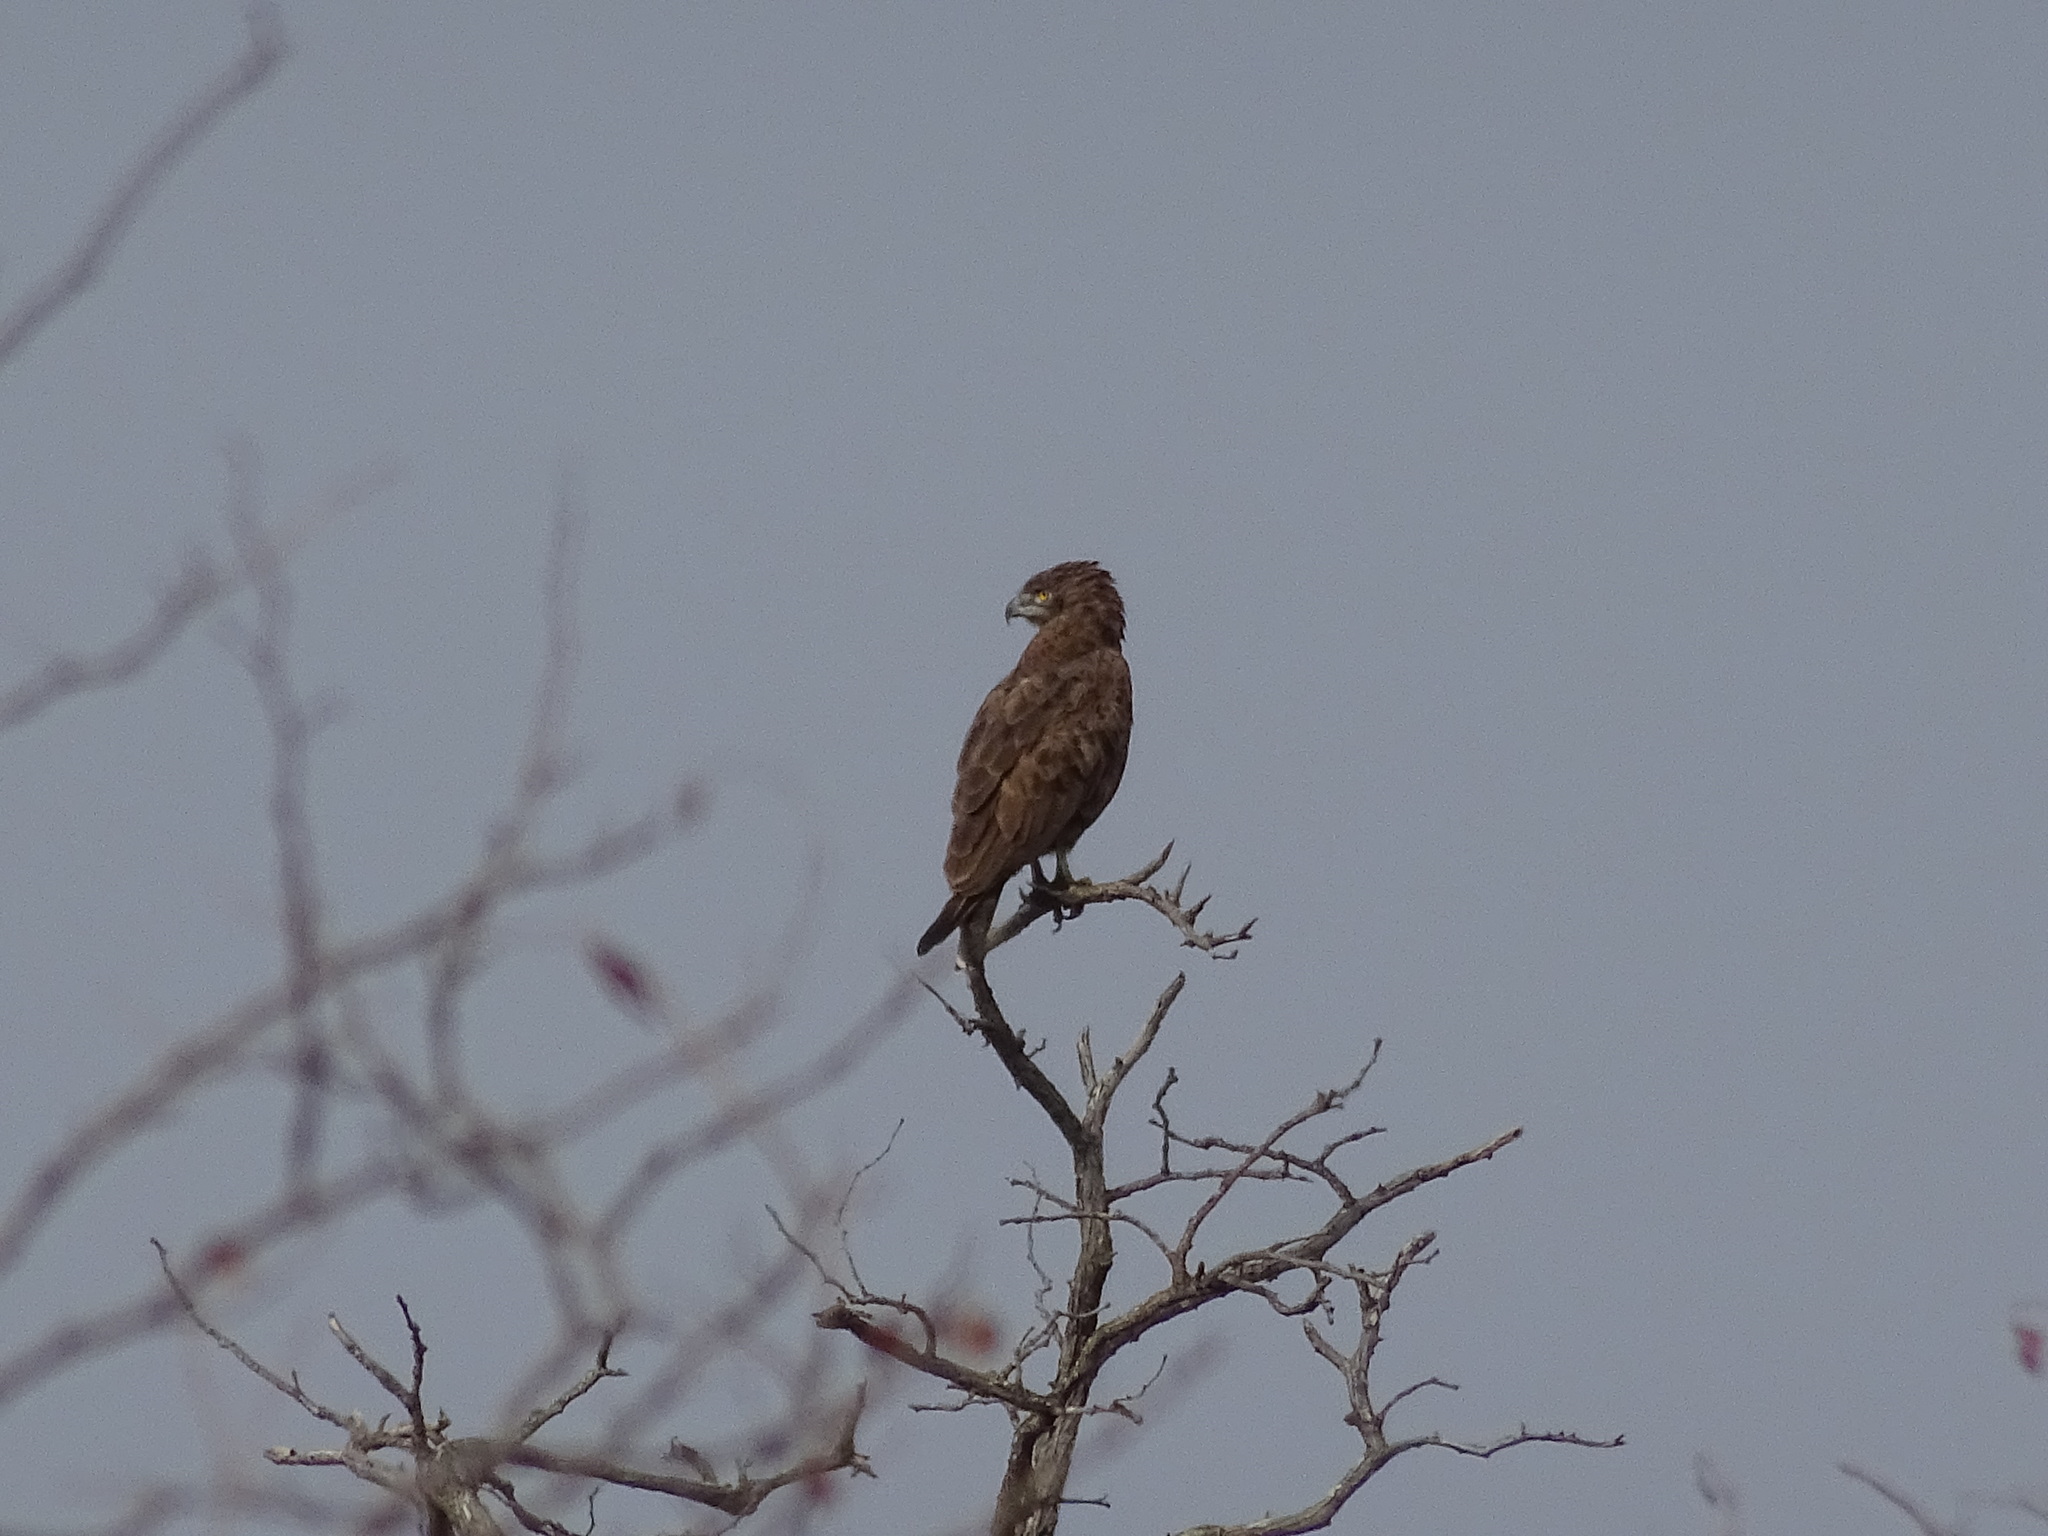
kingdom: Animalia
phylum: Chordata
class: Aves
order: Accipitriformes
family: Accipitridae
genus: Circaetus
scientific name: Circaetus cinereus
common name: Brown snake eagle
